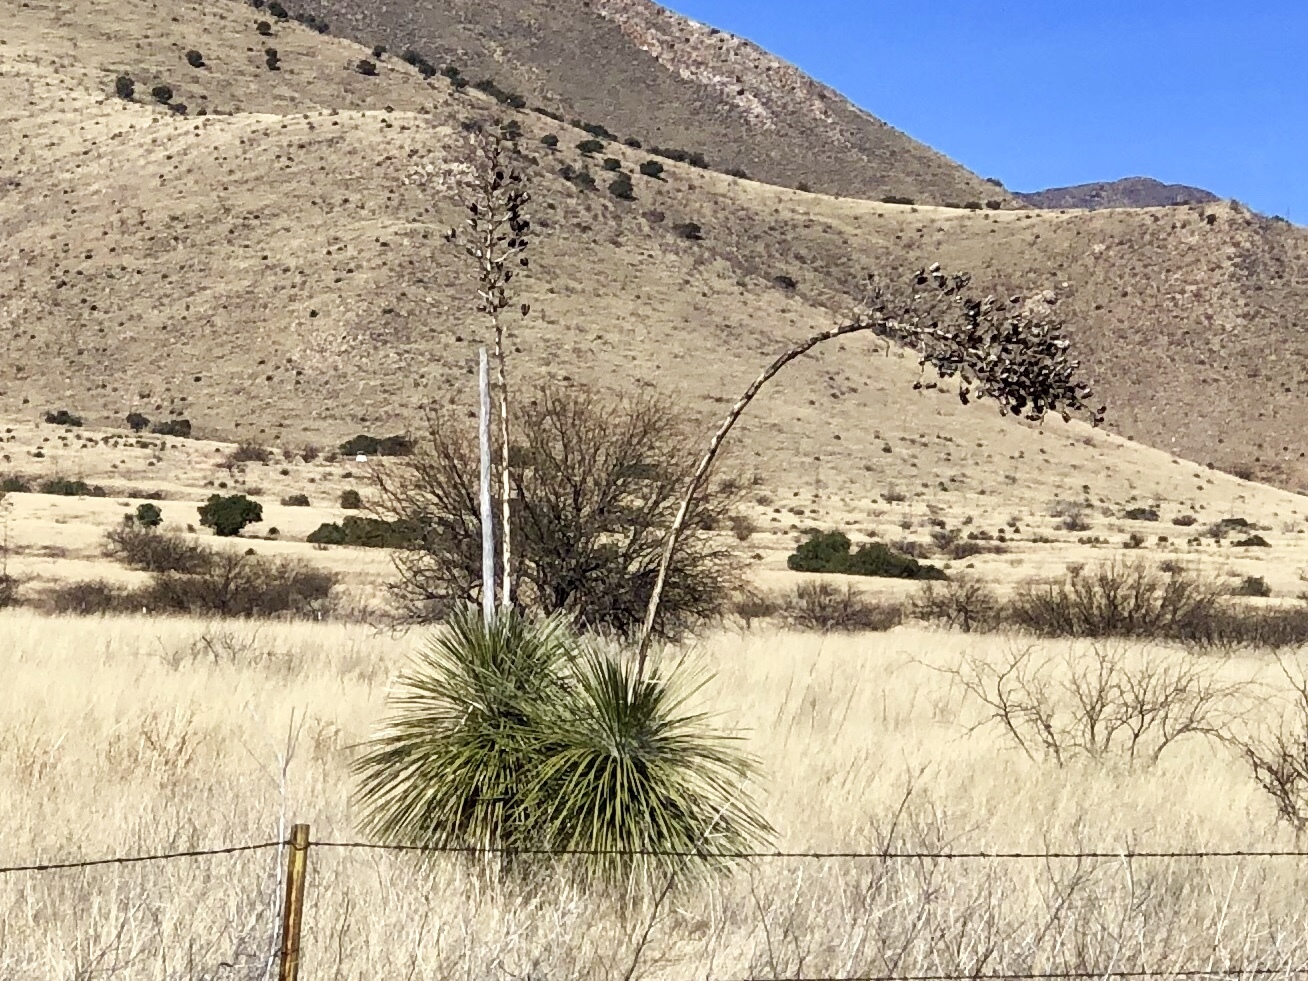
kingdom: Plantae
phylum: Tracheophyta
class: Liliopsida
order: Asparagales
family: Asparagaceae
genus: Yucca
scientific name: Yucca elata
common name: Palmella
